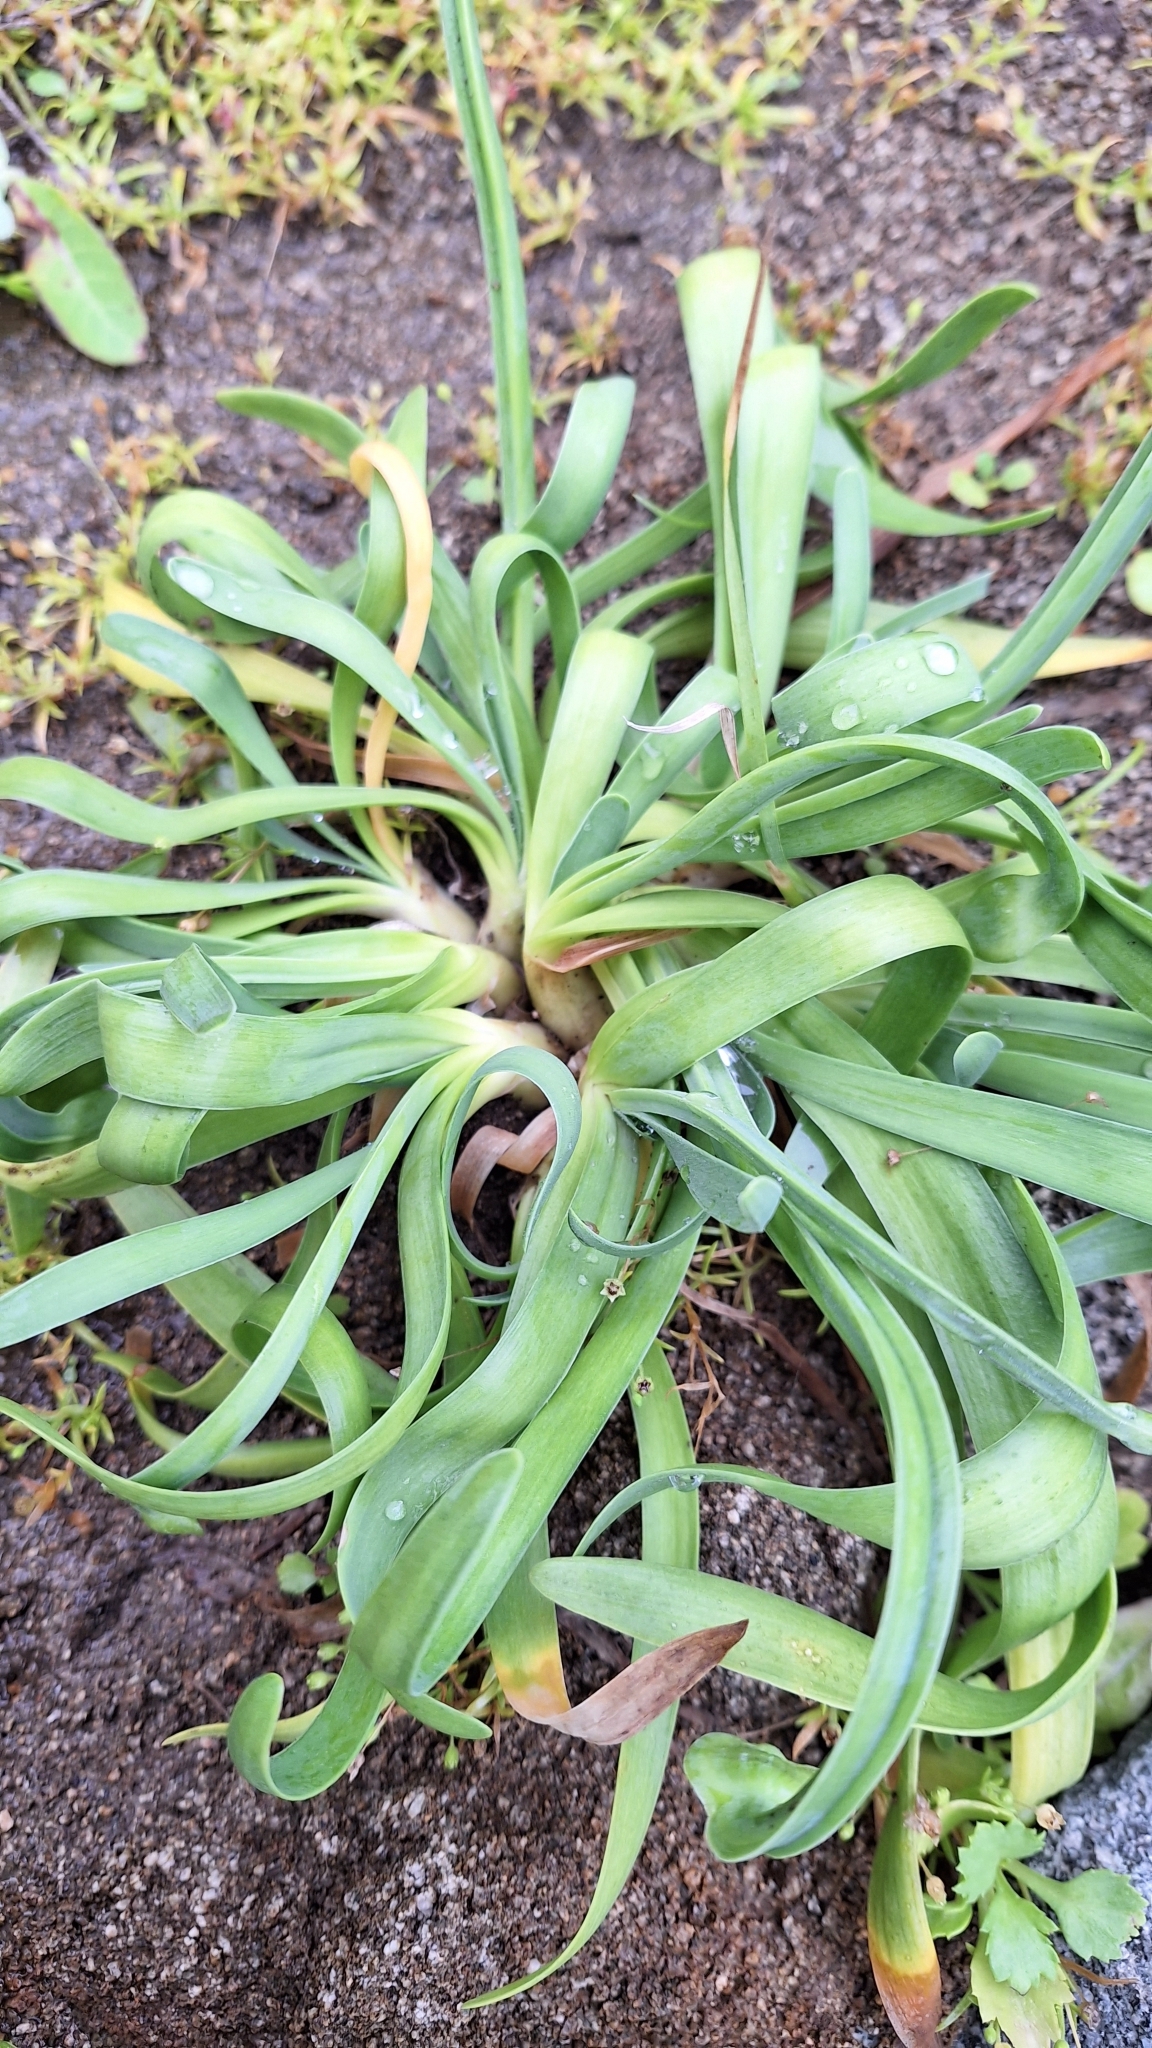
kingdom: Plantae
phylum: Tracheophyta
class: Liliopsida
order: Asparagales
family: Amaryllidaceae
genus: Allium
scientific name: Allium spirale
